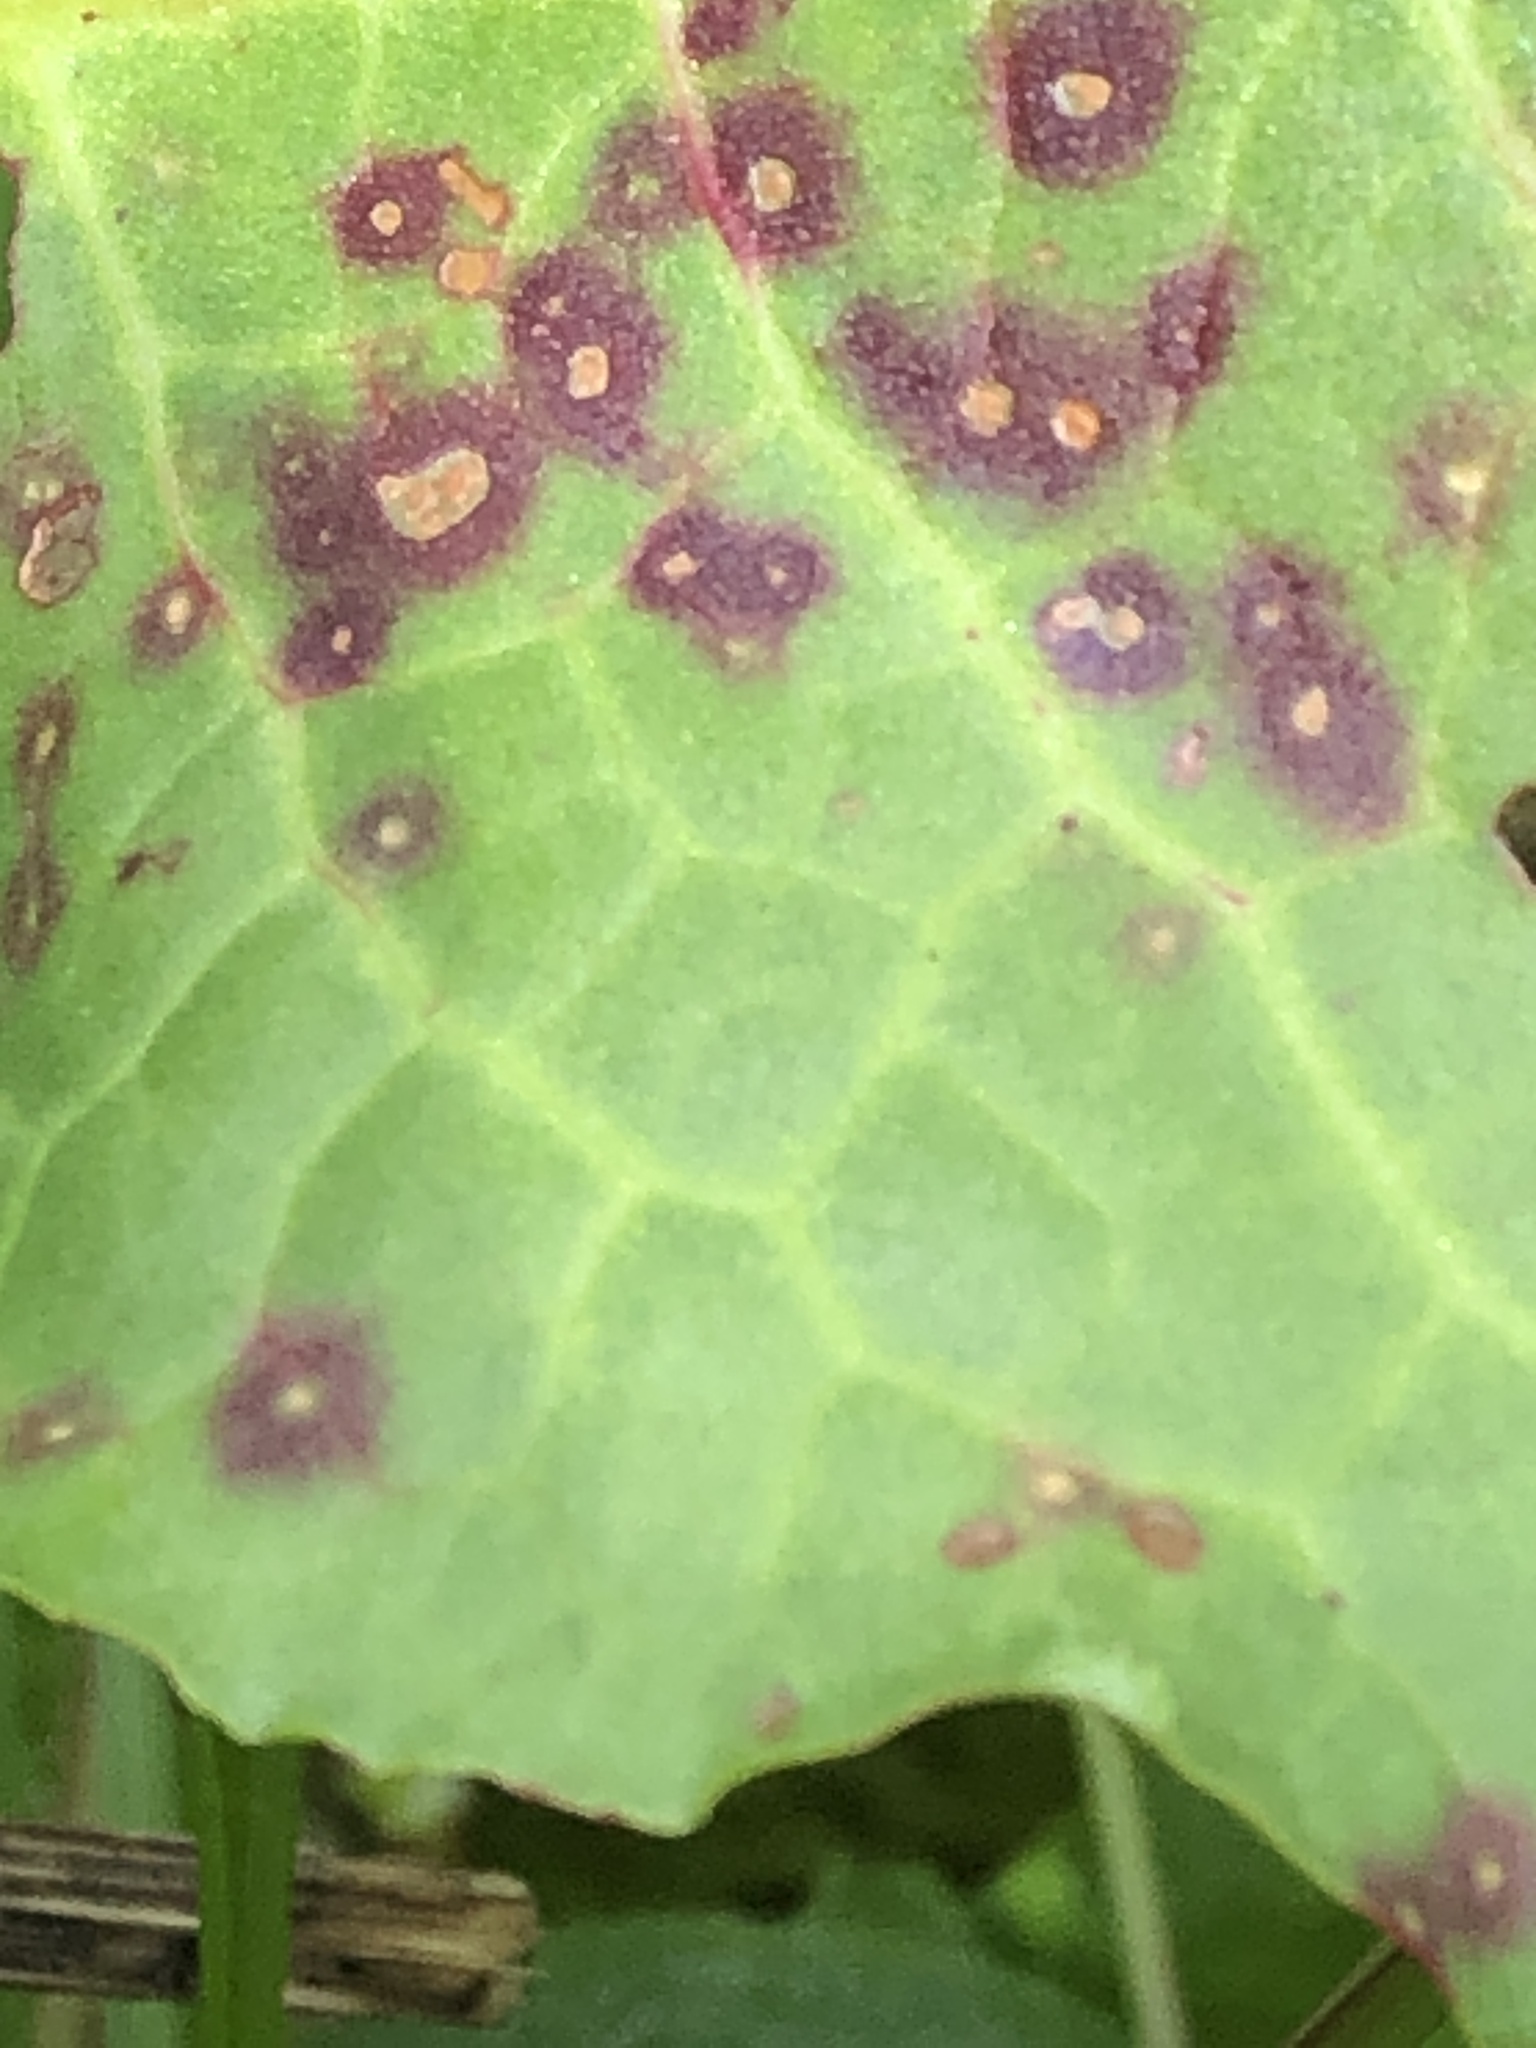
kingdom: Fungi
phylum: Ascomycota
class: Dothideomycetes
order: Mycosphaerellales
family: Mycosphaerellaceae
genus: Ramularia
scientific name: Ramularia rubella
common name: Red dock spot
